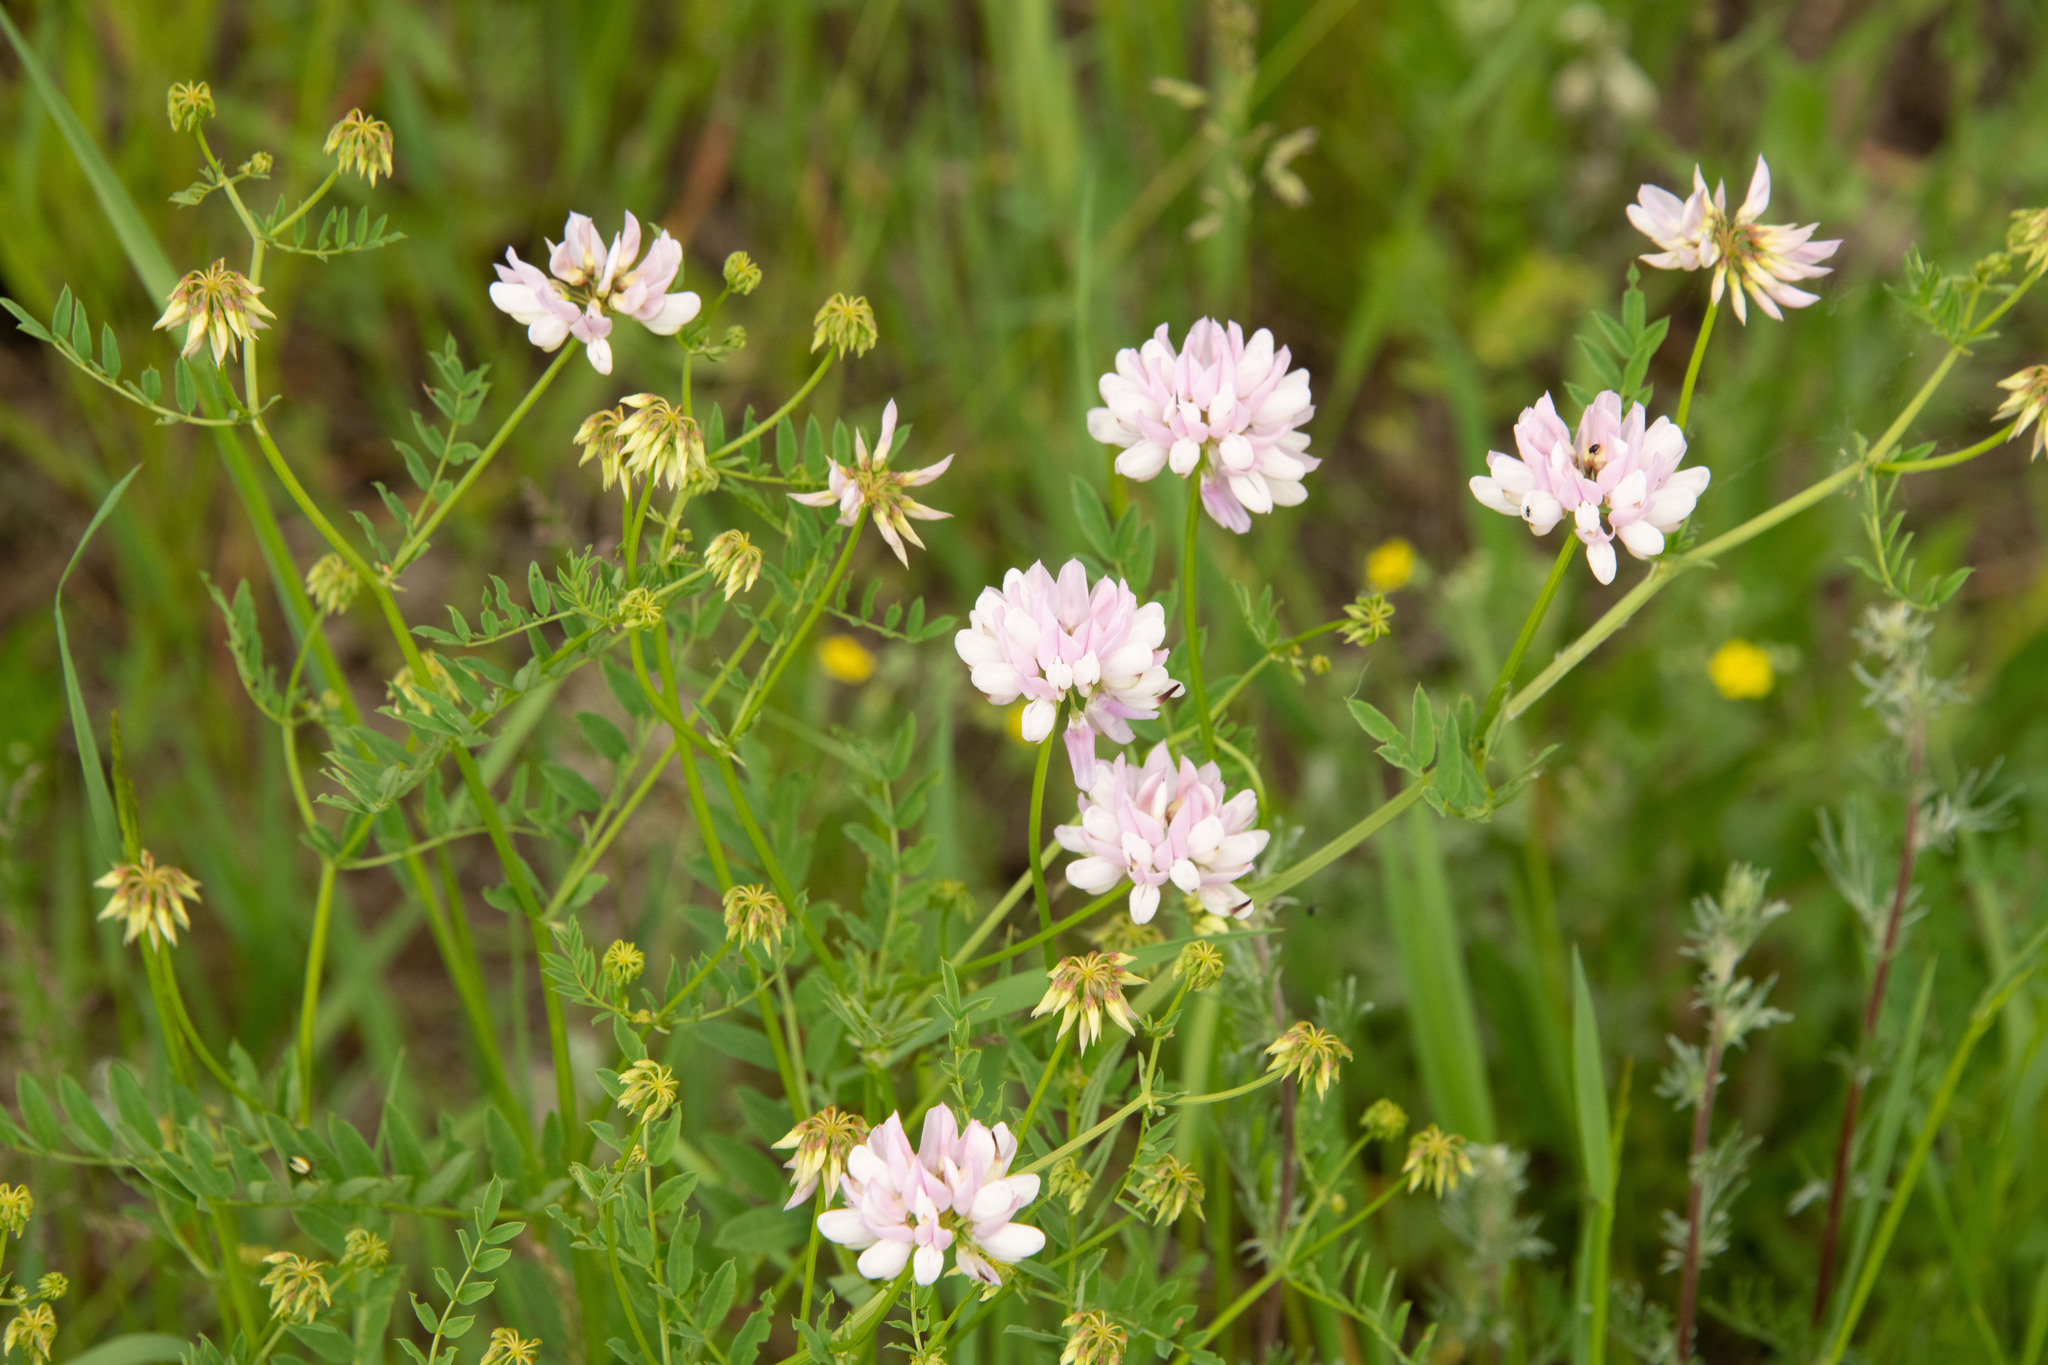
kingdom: Plantae
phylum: Tracheophyta
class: Magnoliopsida
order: Fabales
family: Fabaceae
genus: Coronilla
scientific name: Coronilla varia
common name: Crownvetch
